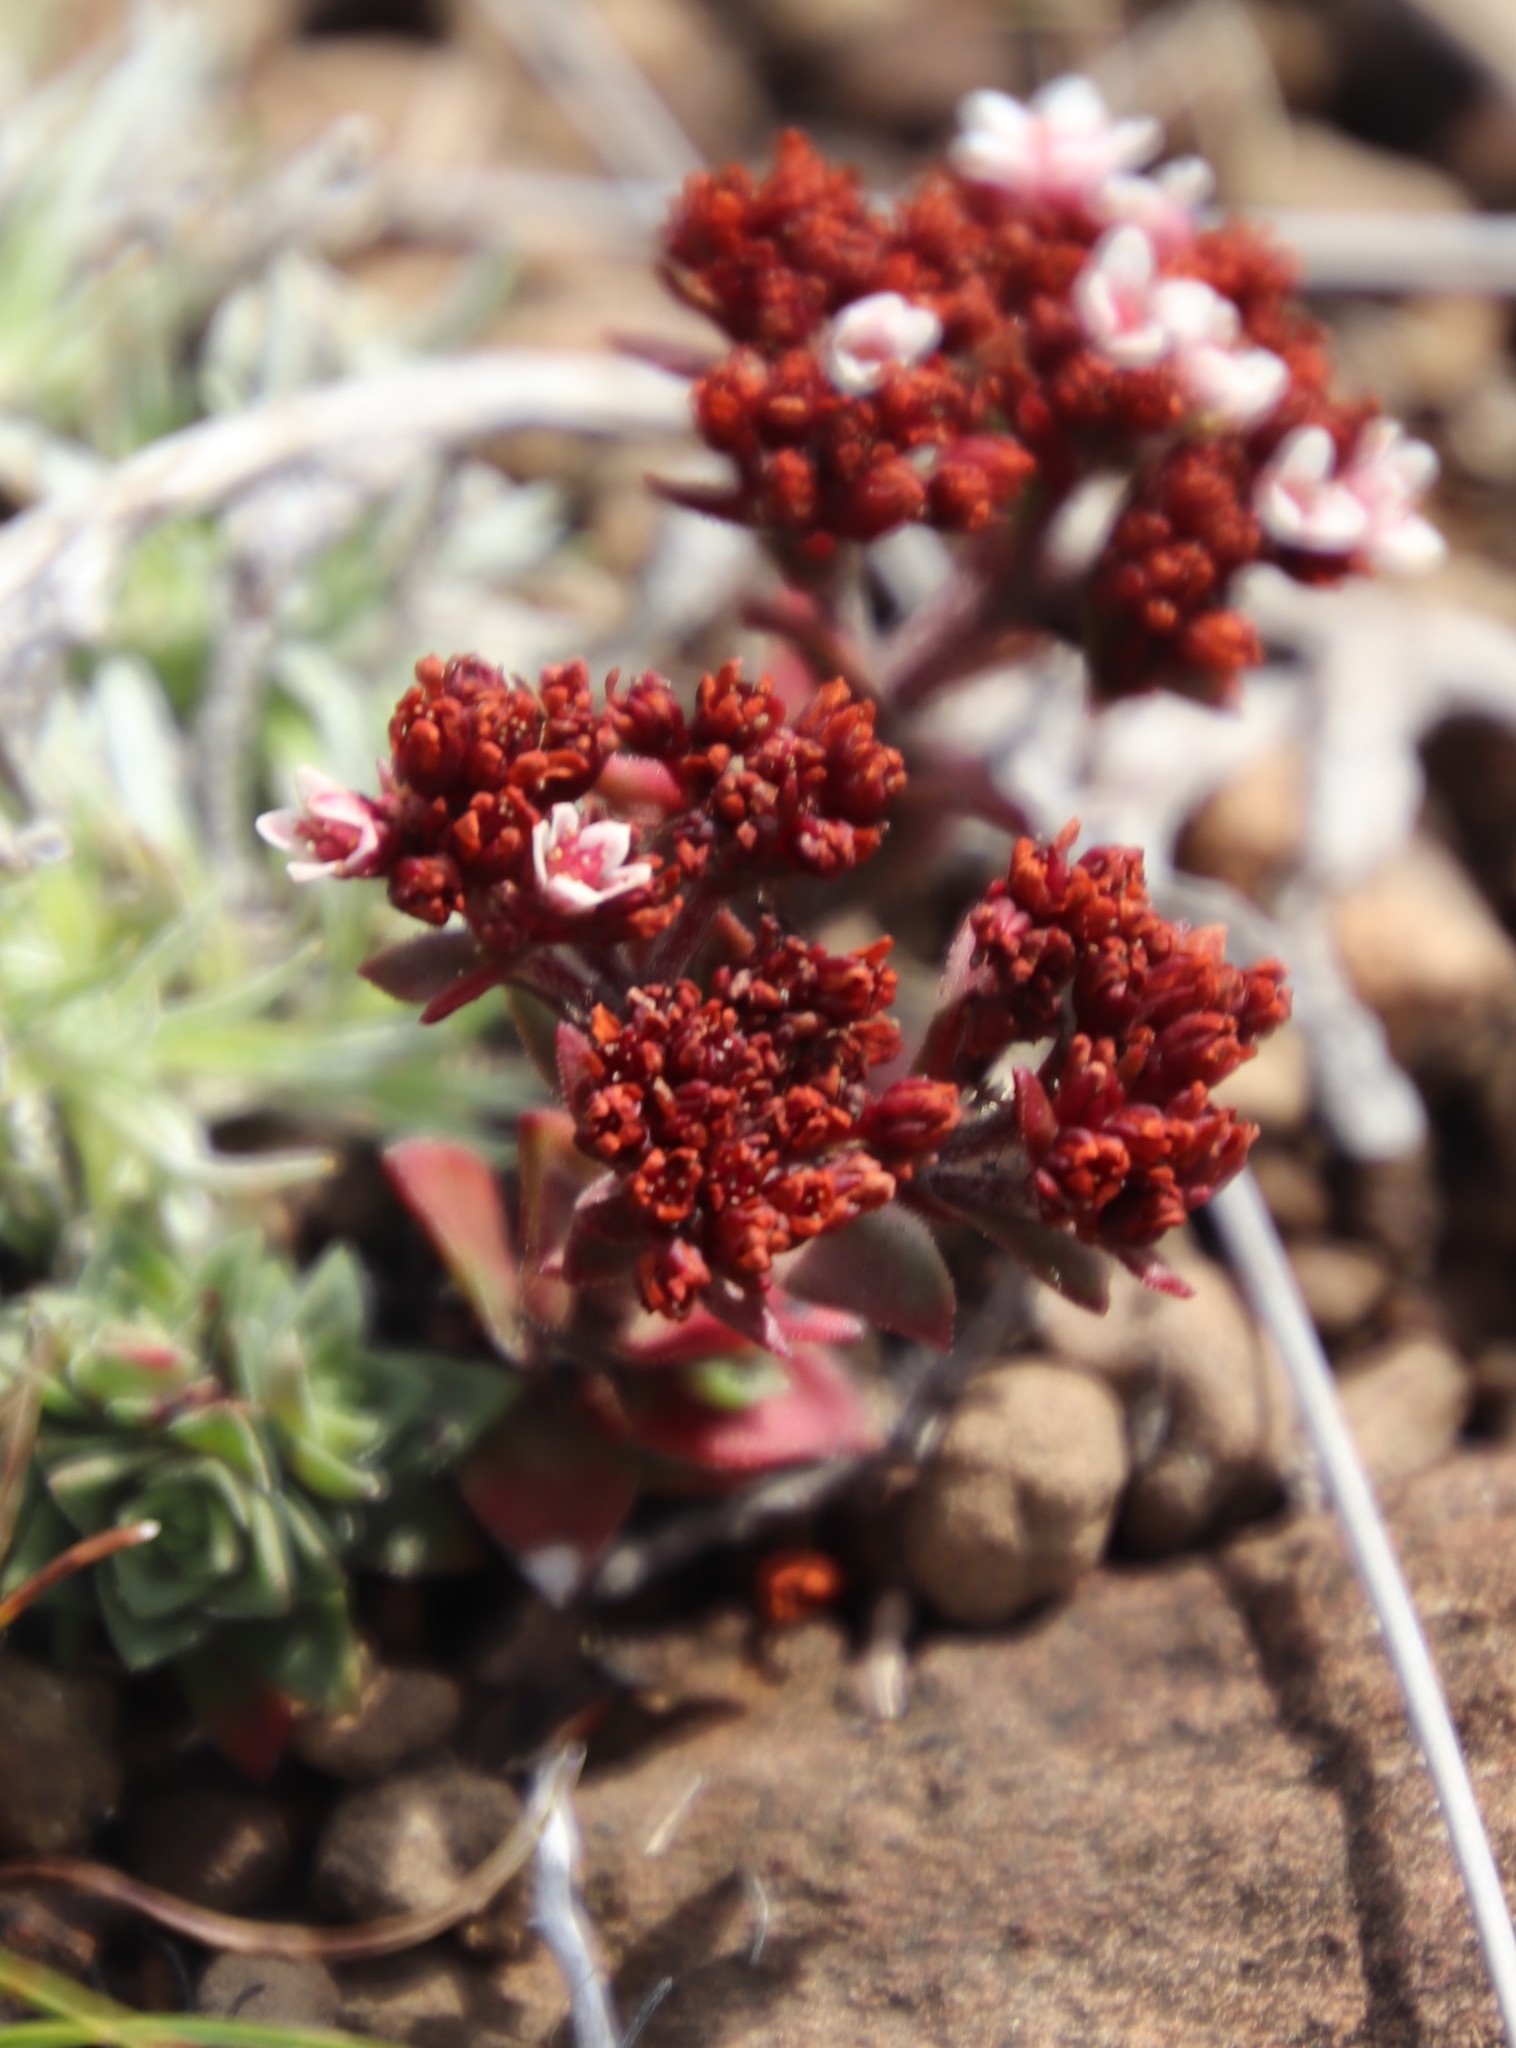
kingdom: Plantae
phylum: Tracheophyta
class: Magnoliopsida
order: Saxifragales
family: Crassulaceae
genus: Crassula
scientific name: Crassula setulosa
